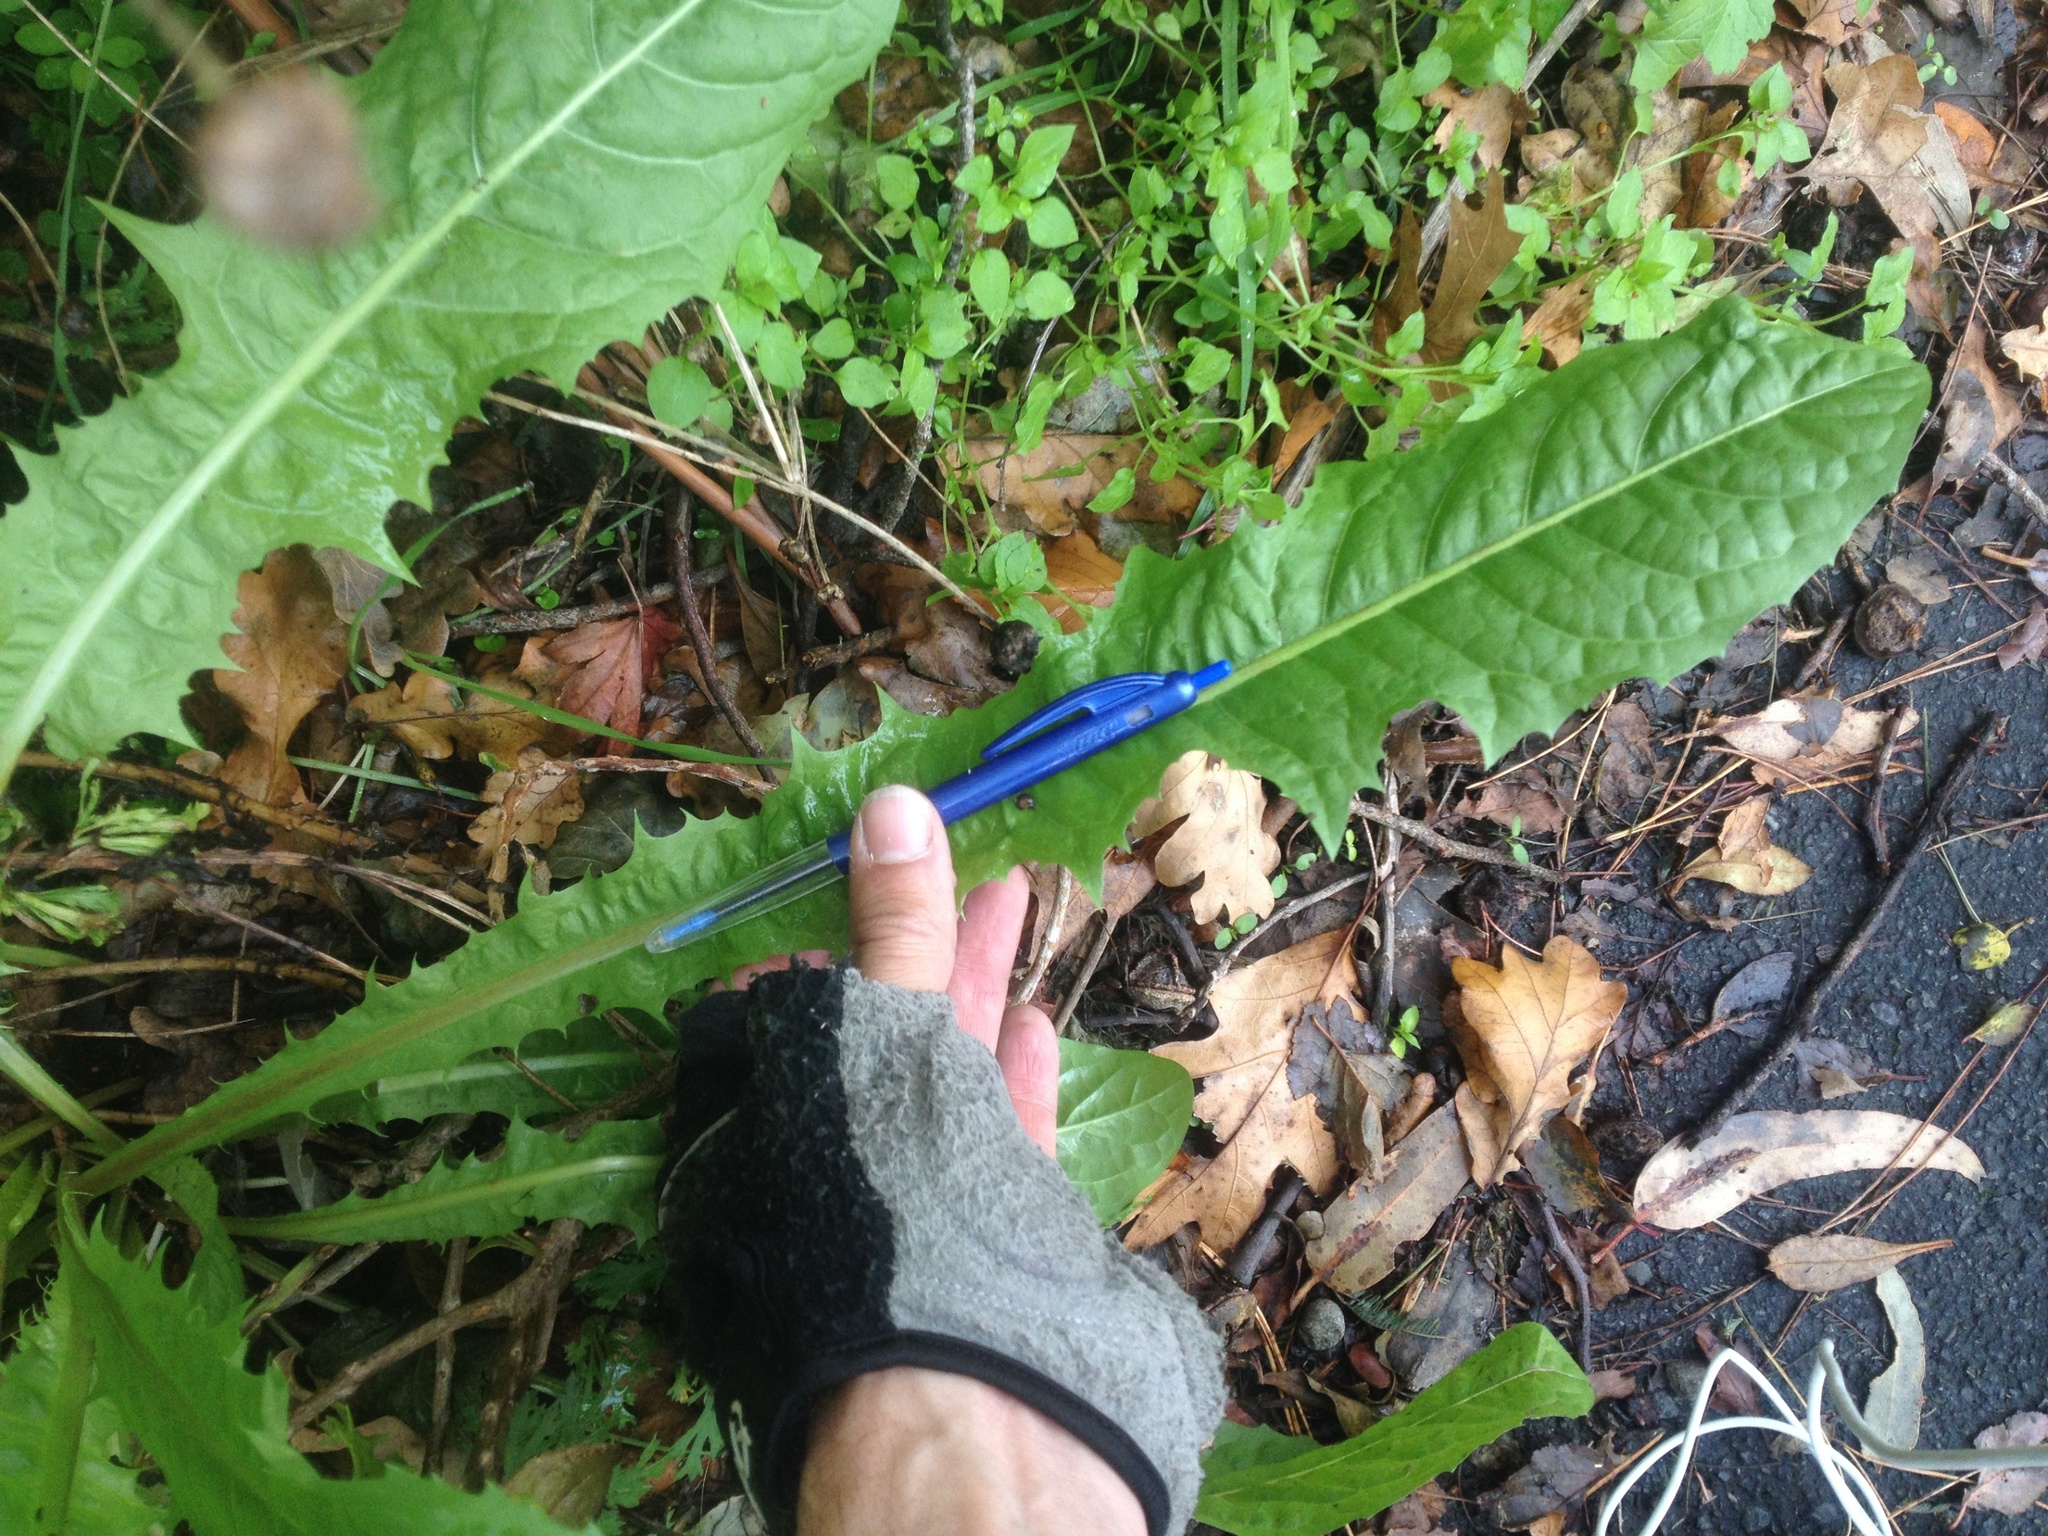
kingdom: Plantae
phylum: Tracheophyta
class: Magnoliopsida
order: Asterales
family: Asteraceae
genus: Taraxacum
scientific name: Taraxacum officinale
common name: Common dandelion
